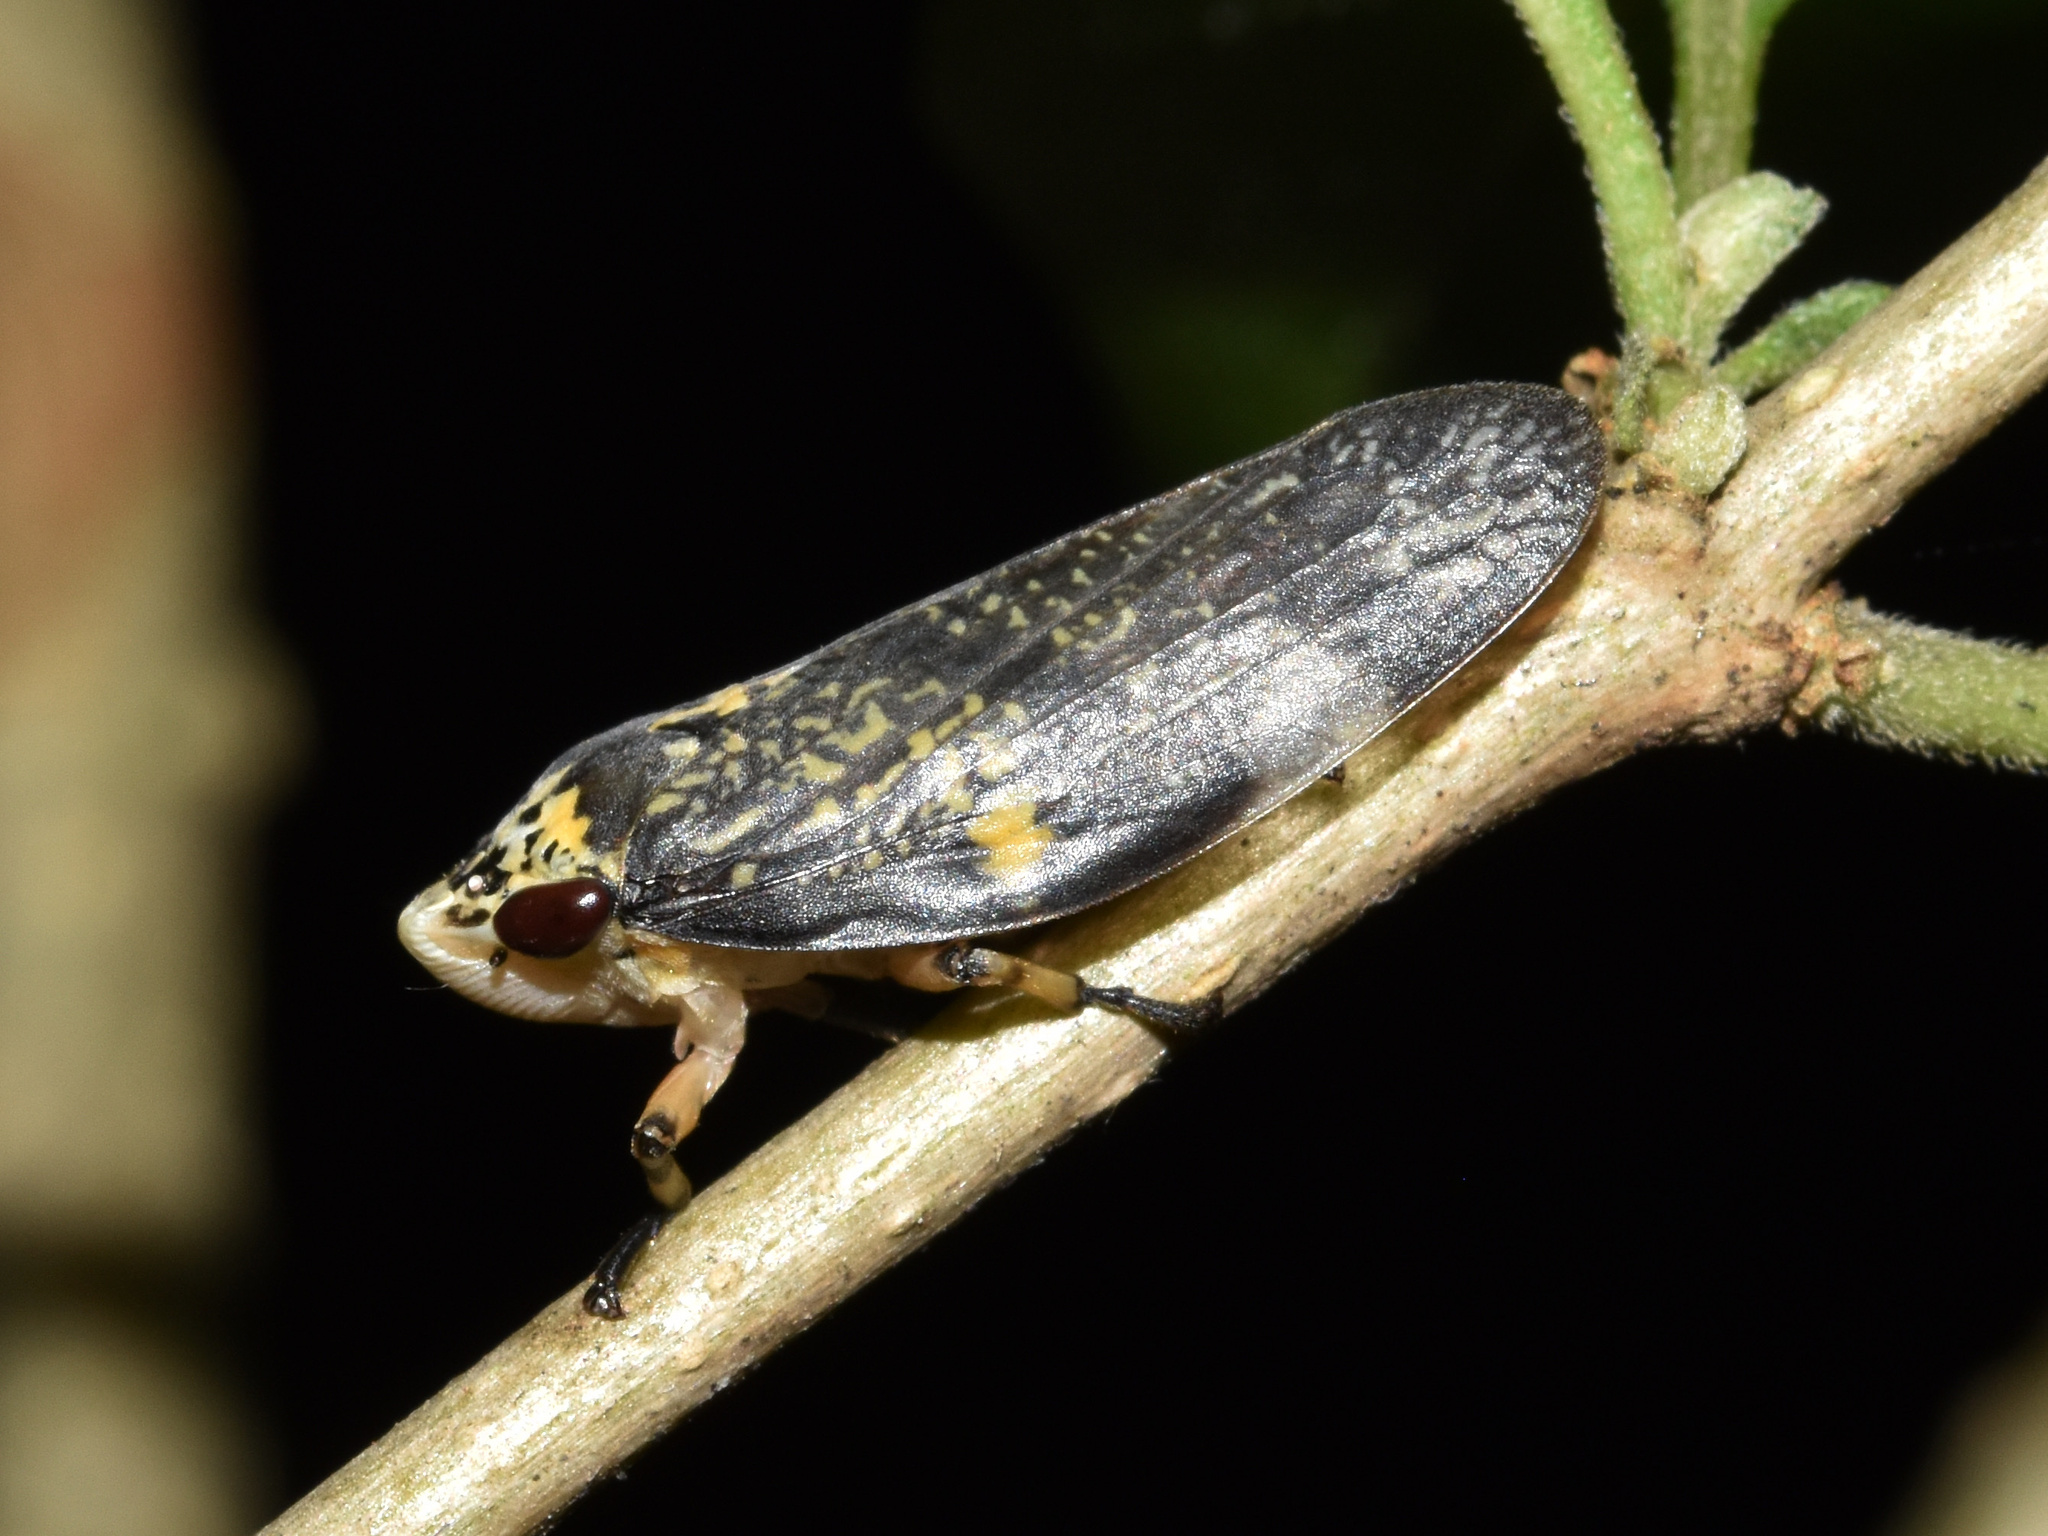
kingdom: Animalia
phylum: Arthropoda
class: Insecta
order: Hemiptera
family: Aphrophoridae
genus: Ptyelus
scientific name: Ptyelus grossus
